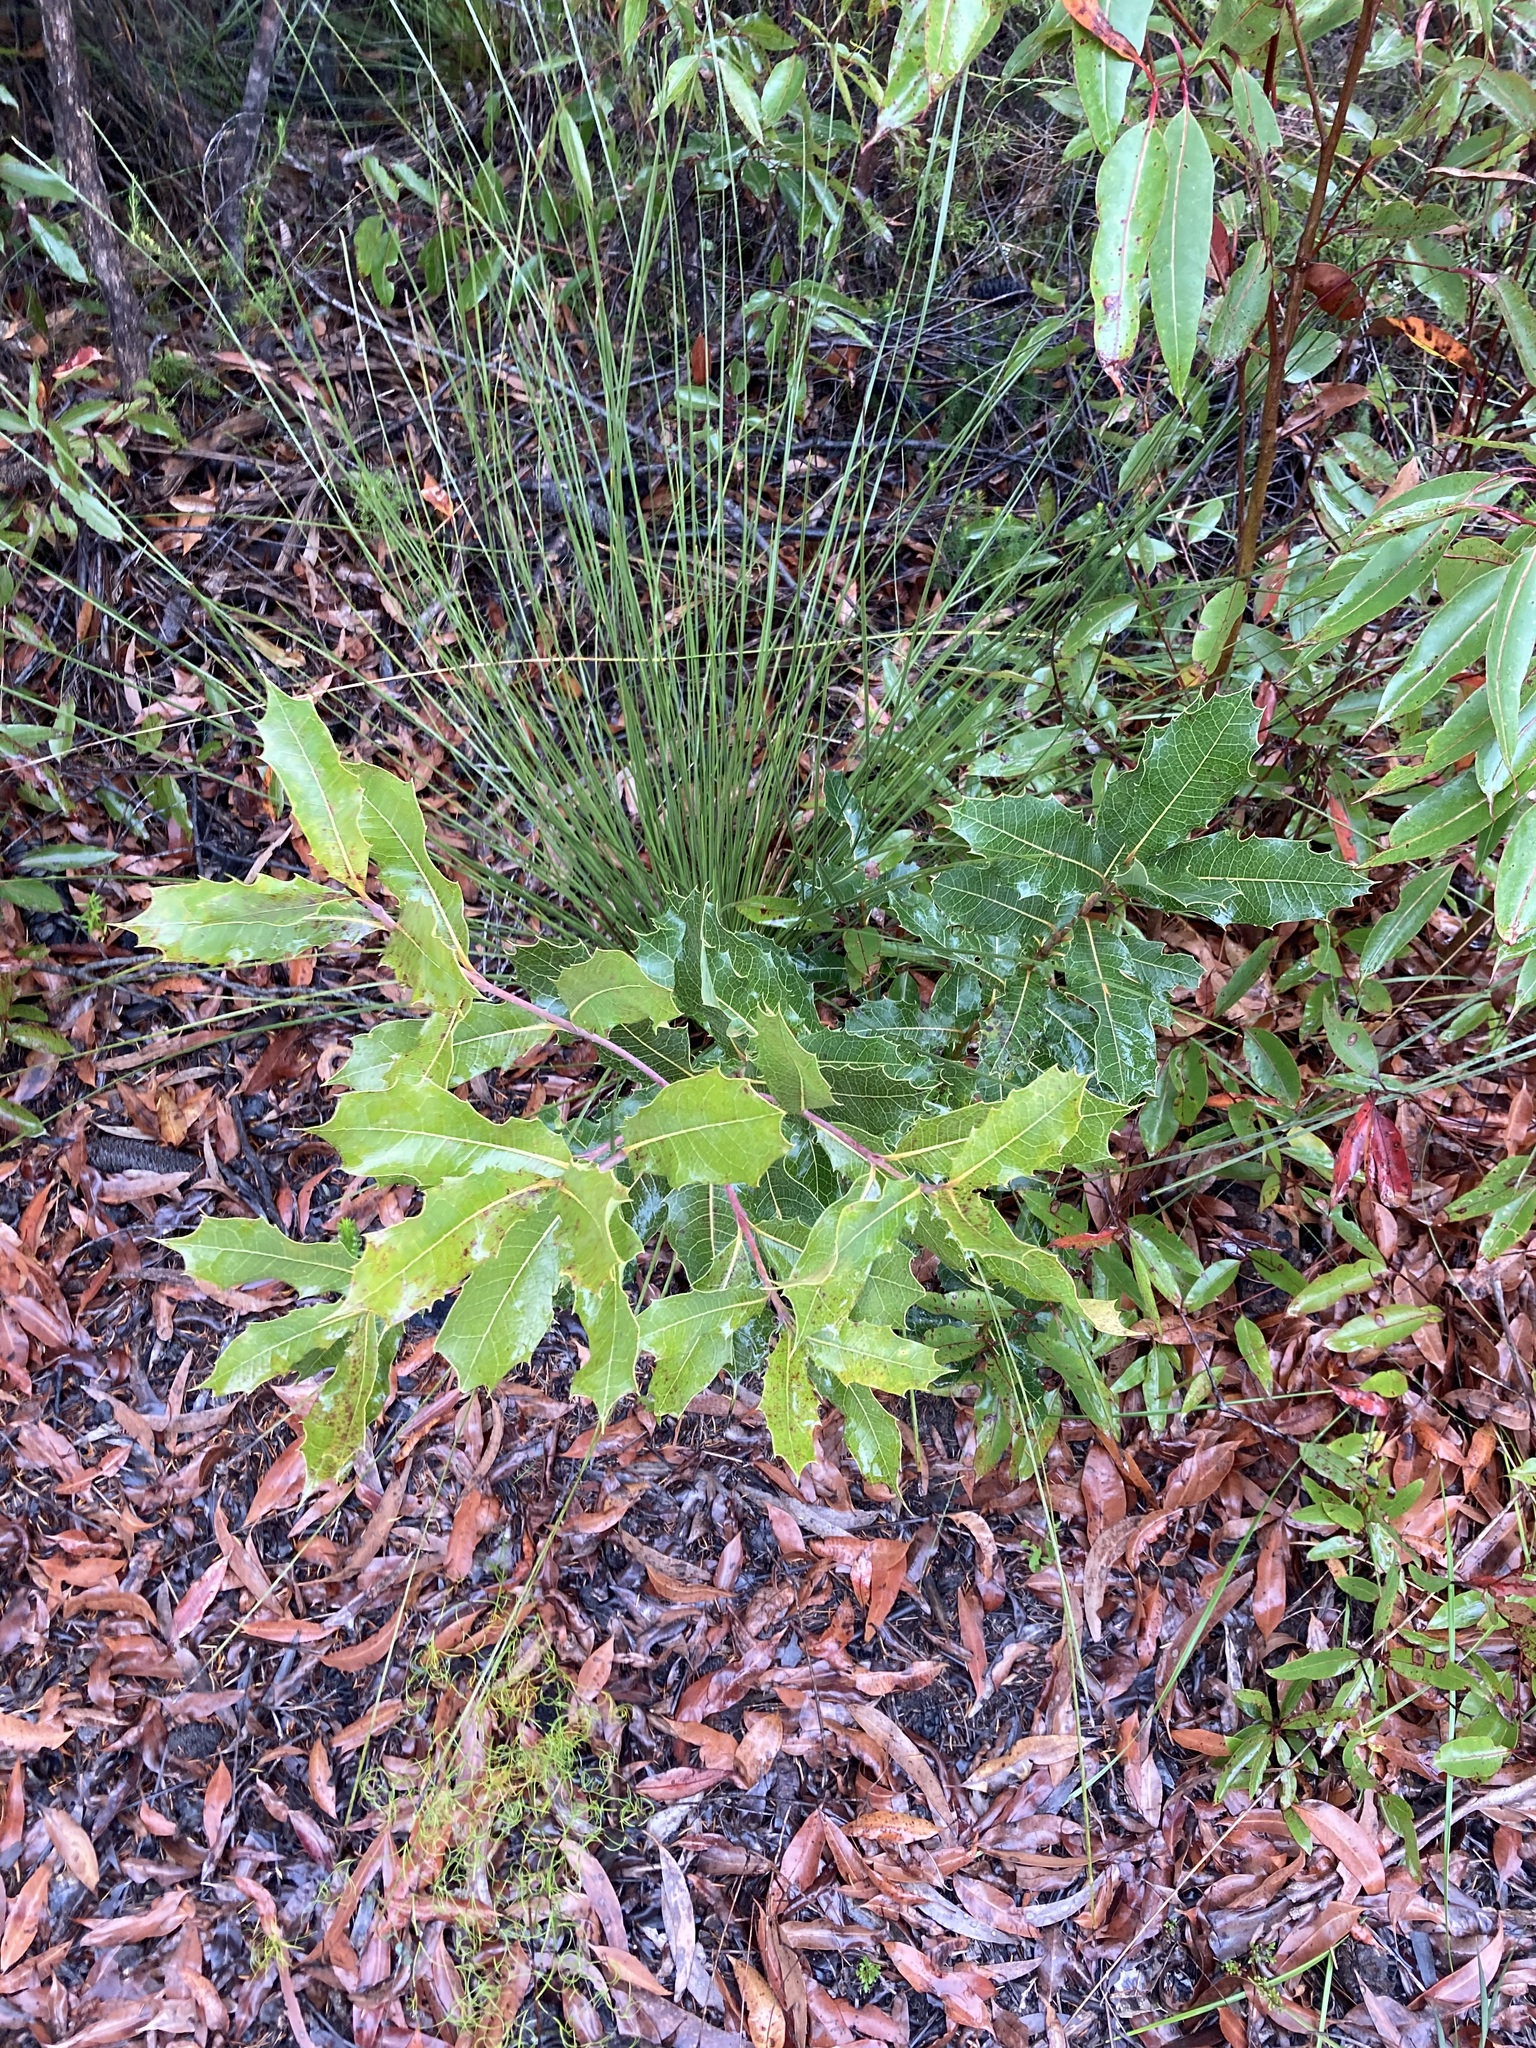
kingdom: Plantae
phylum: Tracheophyta
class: Magnoliopsida
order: Proteales
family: Proteaceae
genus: Xylomelum
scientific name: Xylomelum pyriforme
